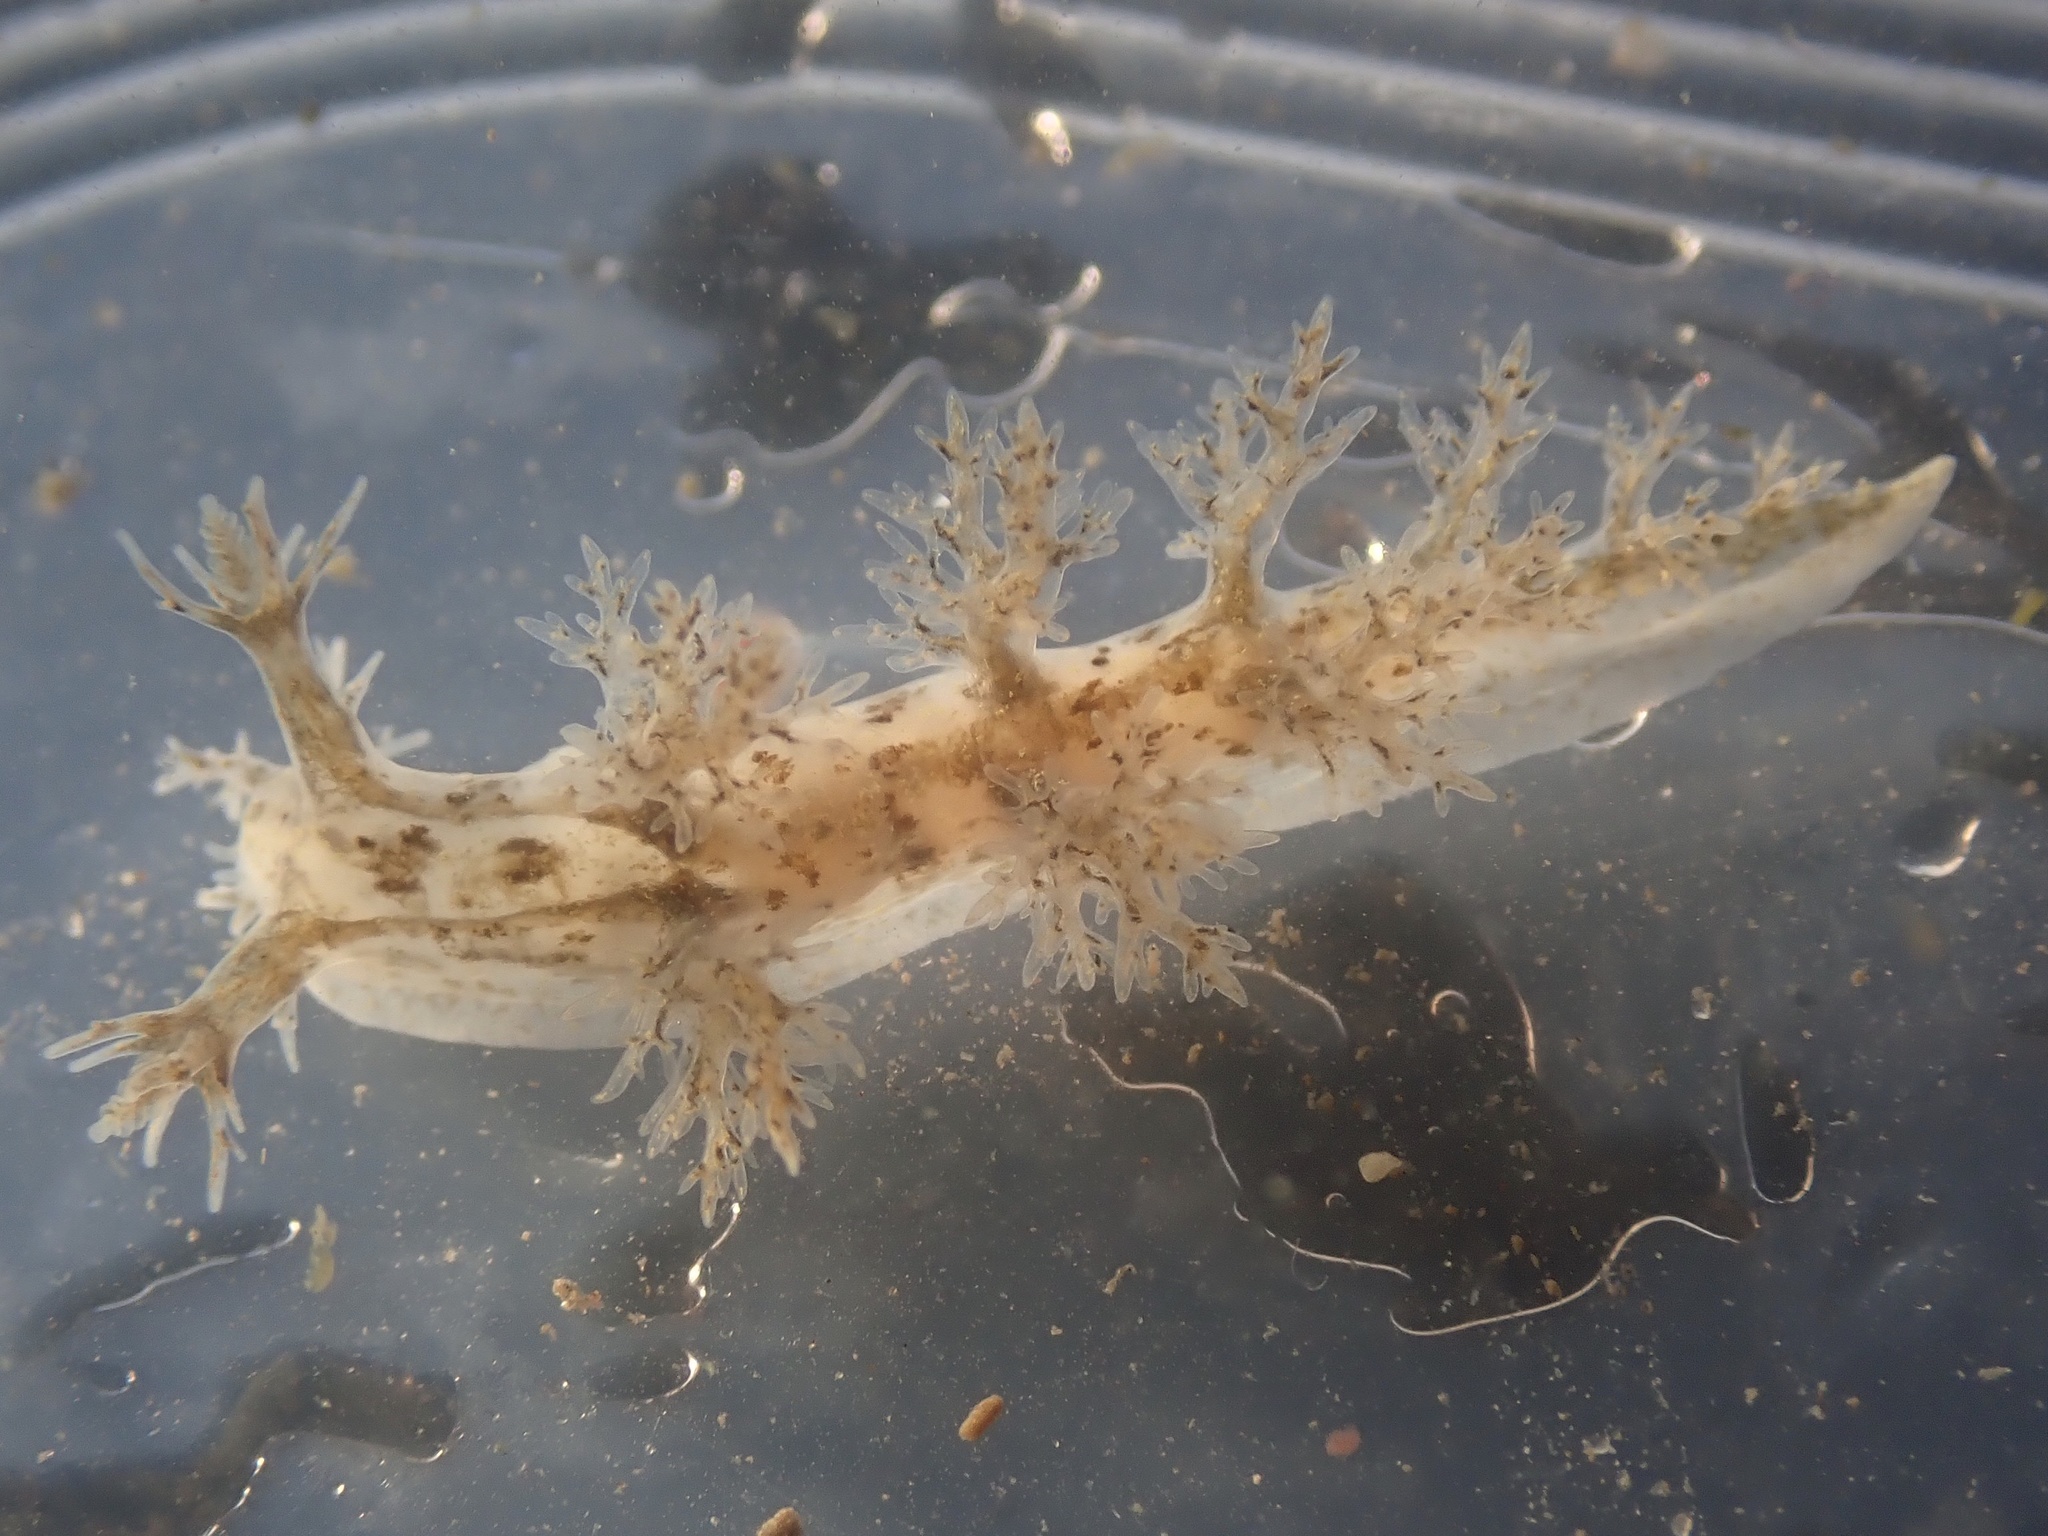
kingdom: Animalia
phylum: Mollusca
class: Gastropoda
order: Nudibranchia
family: Dendronotidae
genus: Dendronotus
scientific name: Dendronotus venustus
